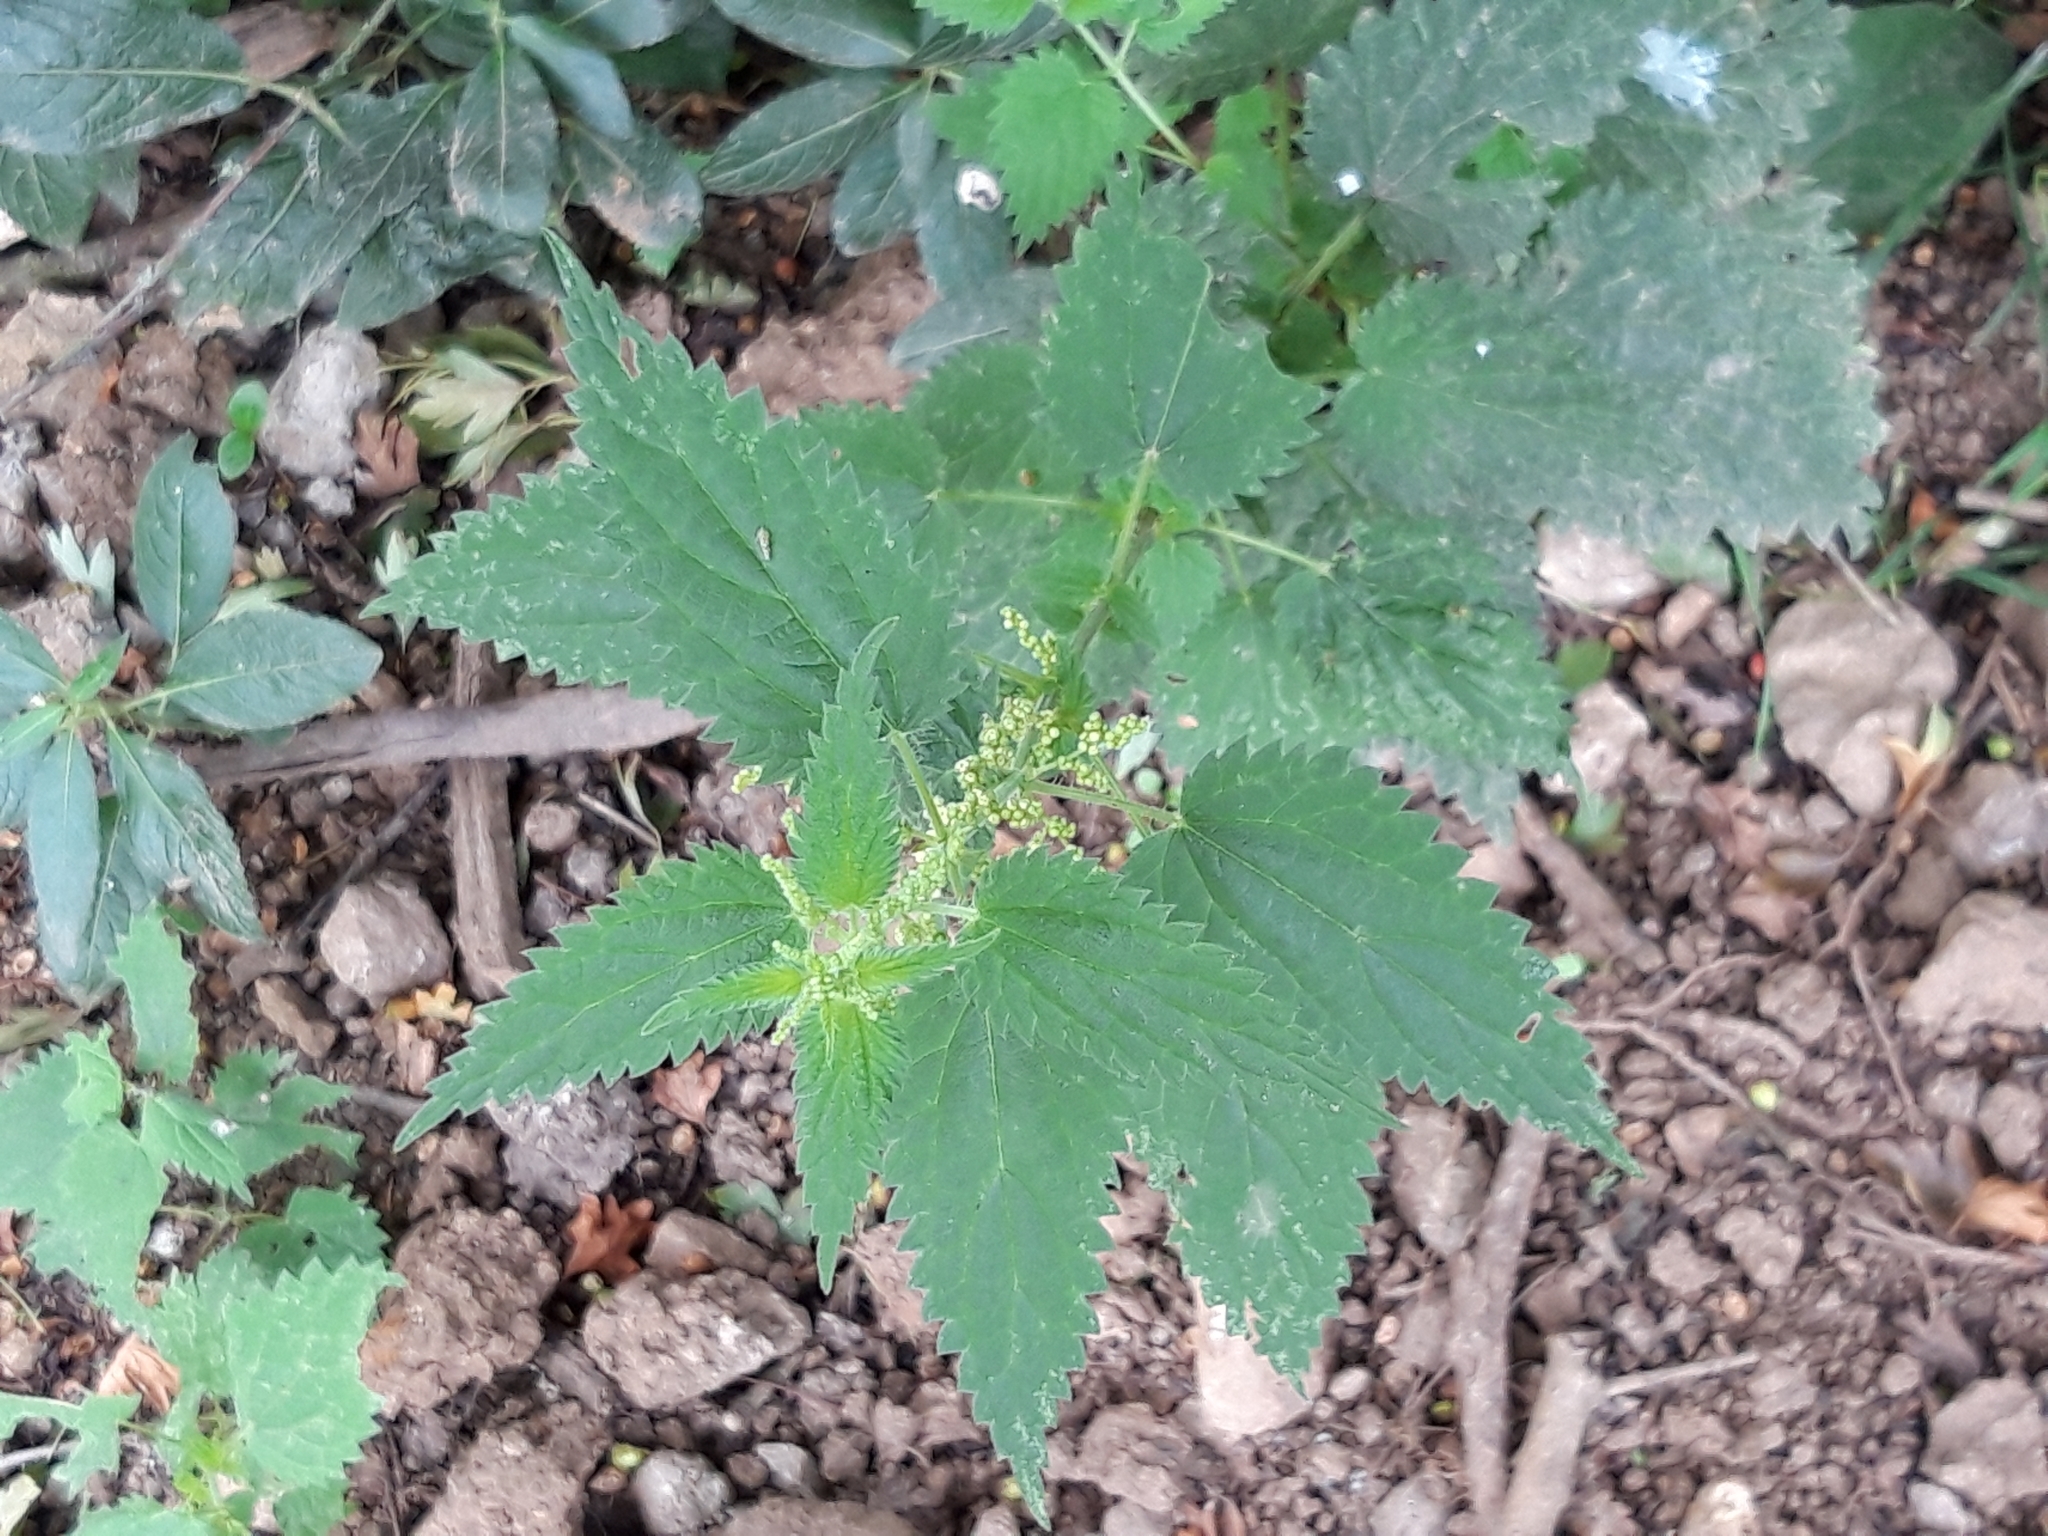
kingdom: Plantae
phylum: Tracheophyta
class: Magnoliopsida
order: Rosales
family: Urticaceae
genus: Urtica
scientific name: Urtica dioica
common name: Common nettle
